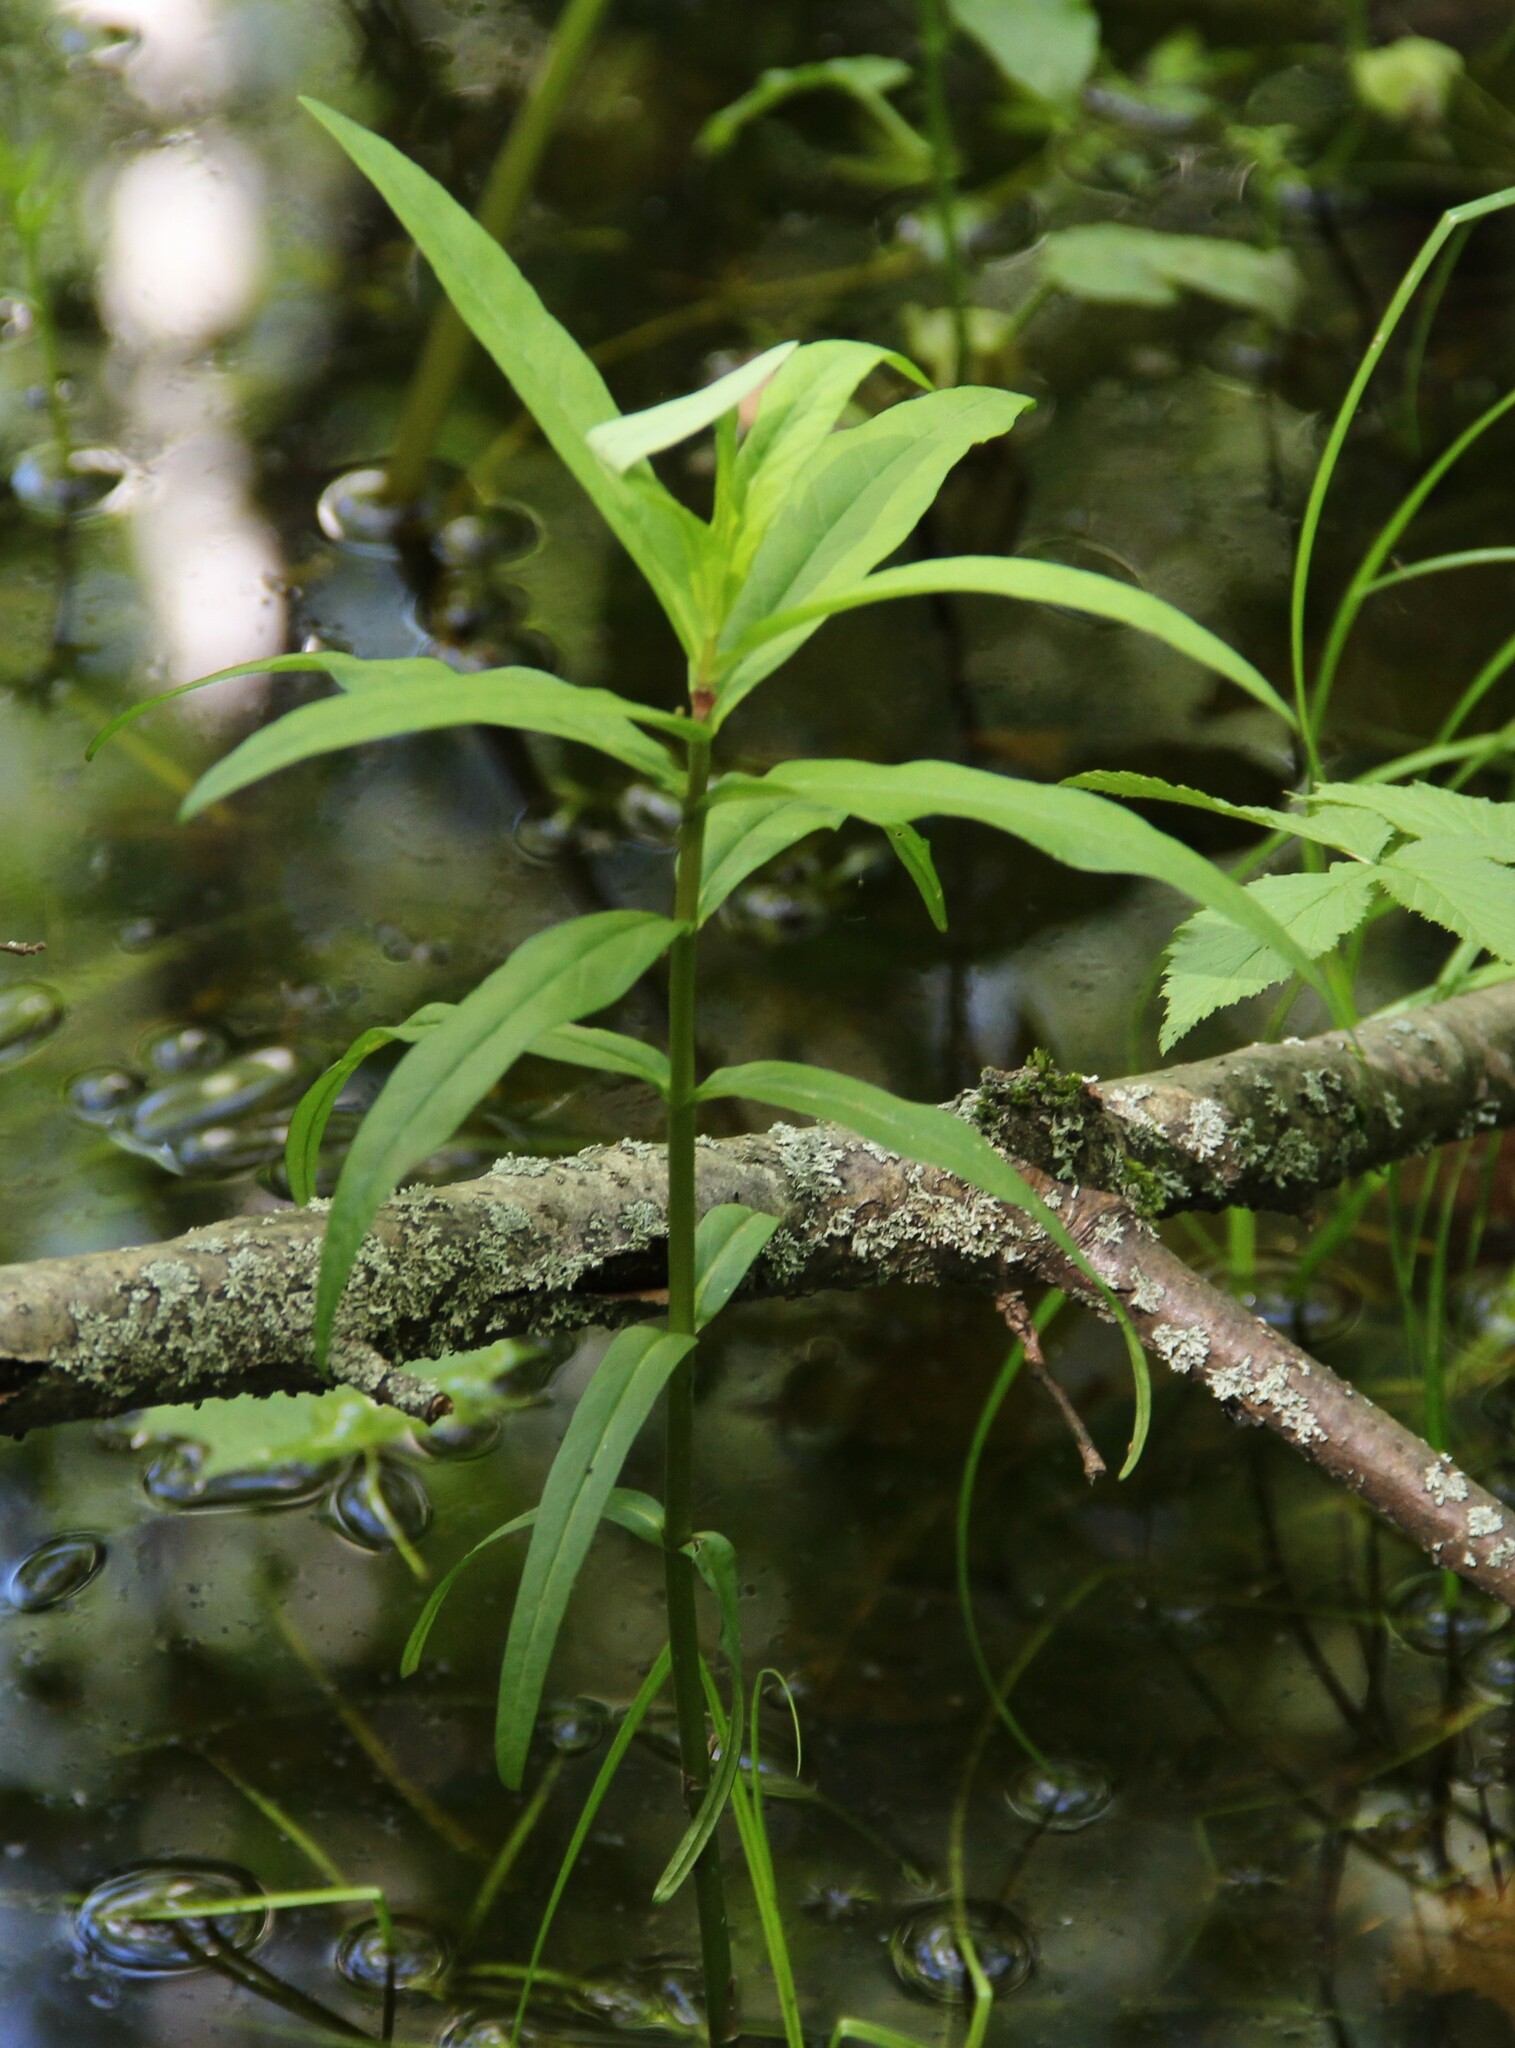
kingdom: Plantae
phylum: Tracheophyta
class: Magnoliopsida
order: Ericales
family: Primulaceae
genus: Lysimachia
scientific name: Lysimachia thyrsiflora
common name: Tufted loosestrife
